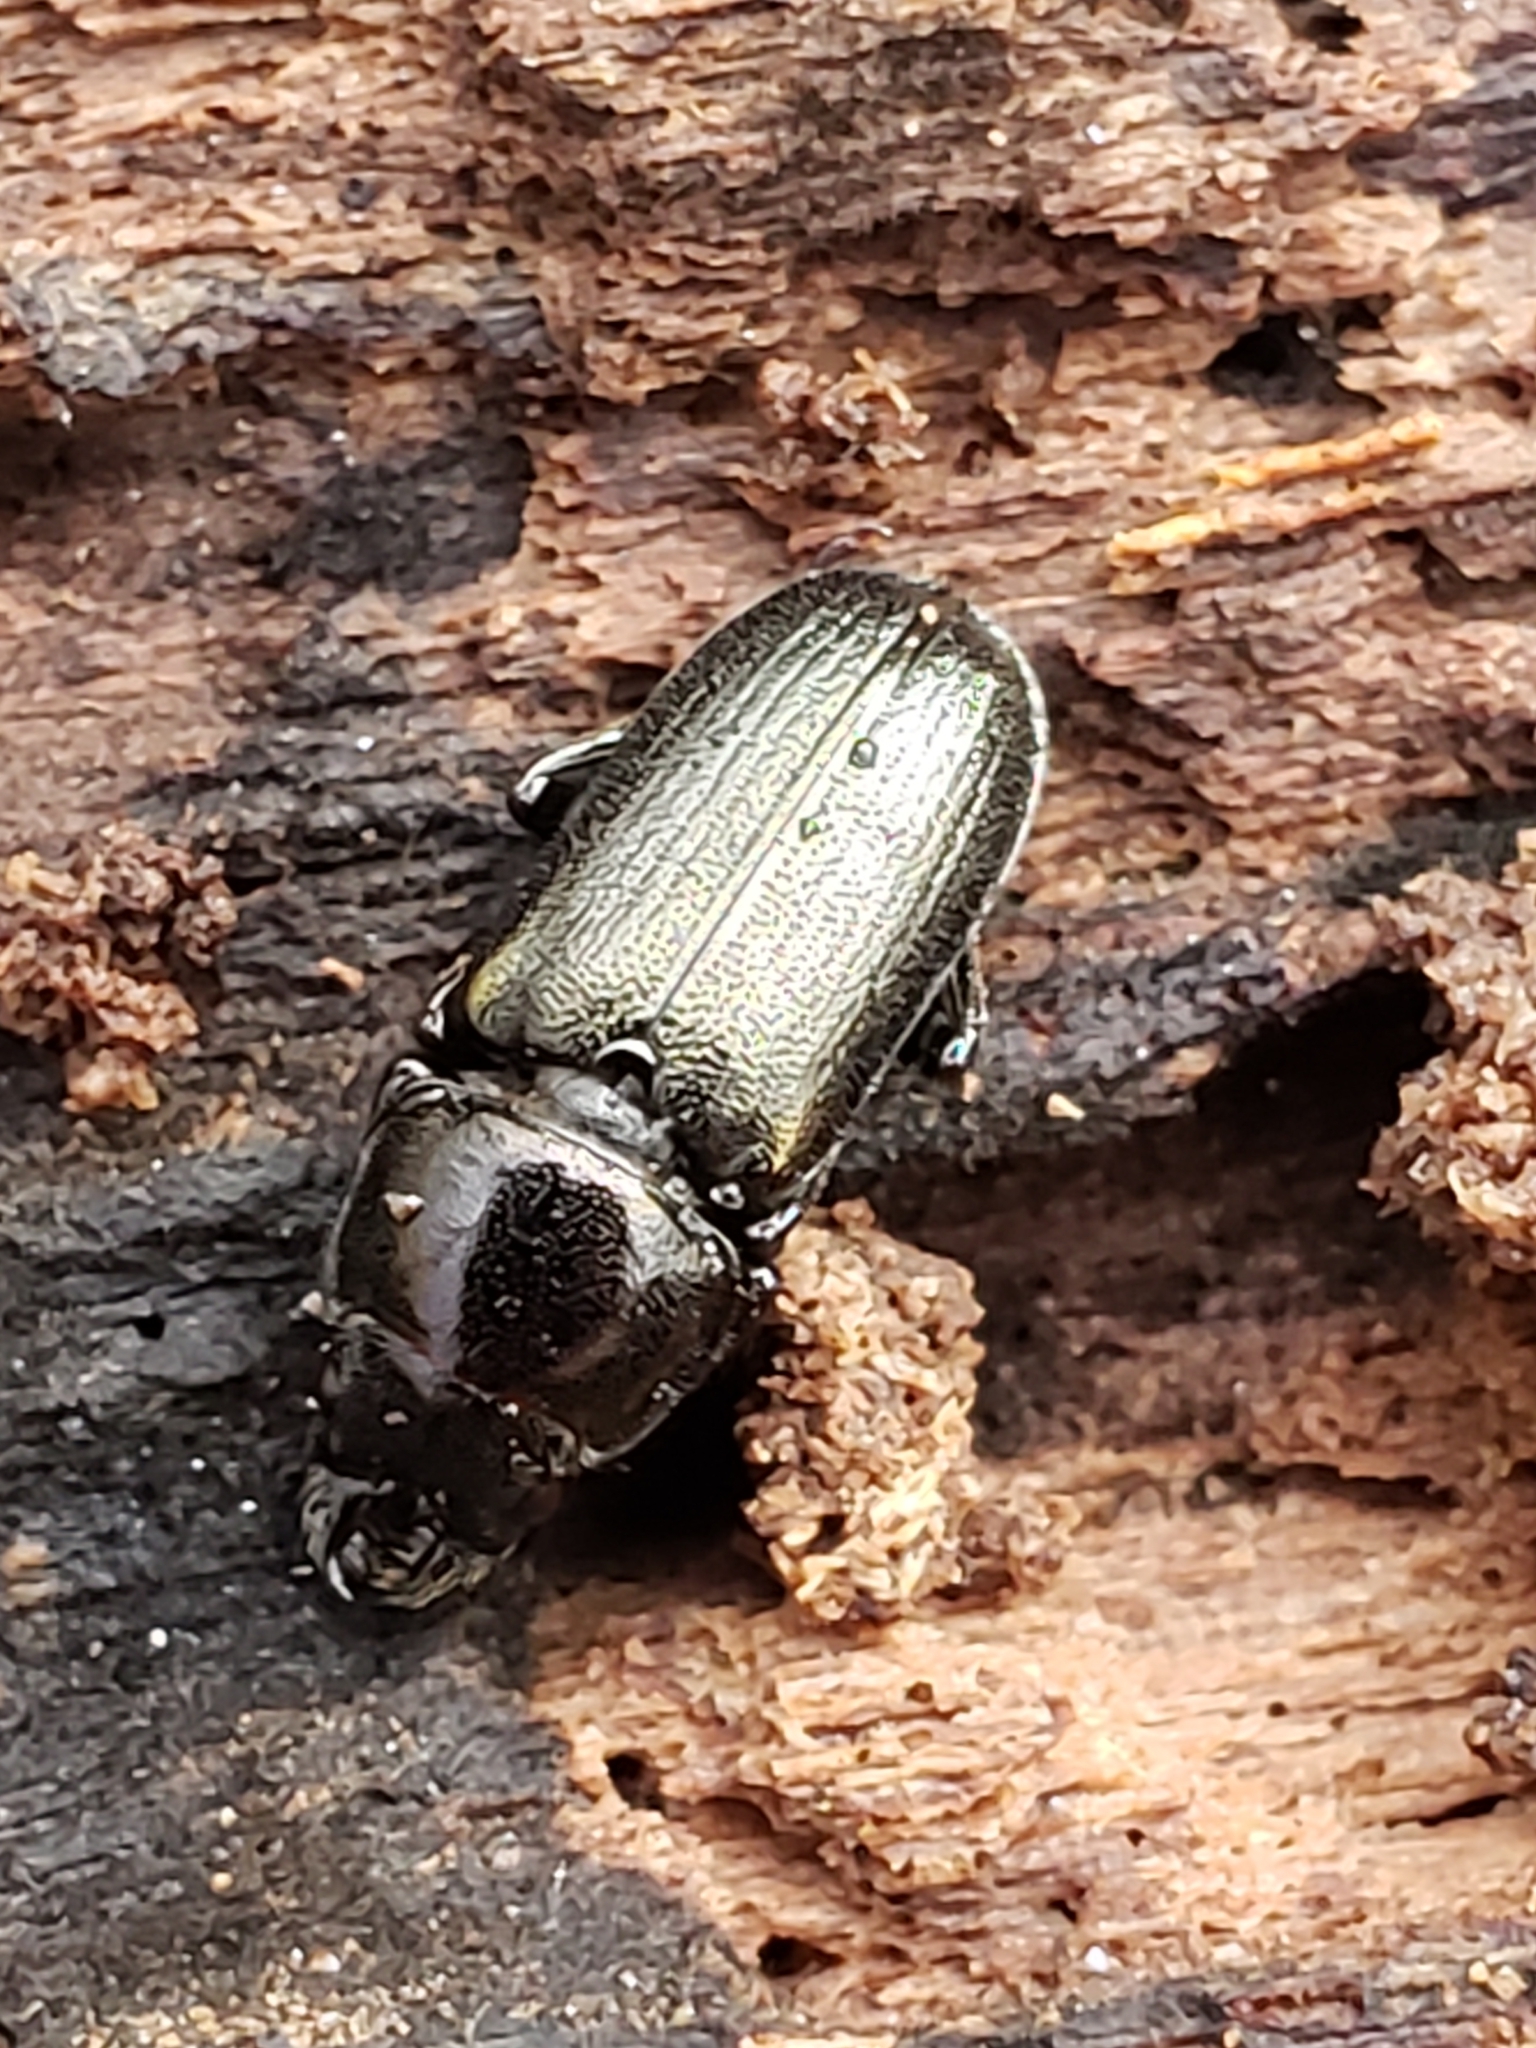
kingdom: Animalia
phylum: Arthropoda
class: Insecta
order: Coleoptera
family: Lucanidae
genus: Platycerus
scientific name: Platycerus quercus
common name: Oak stag beetle
